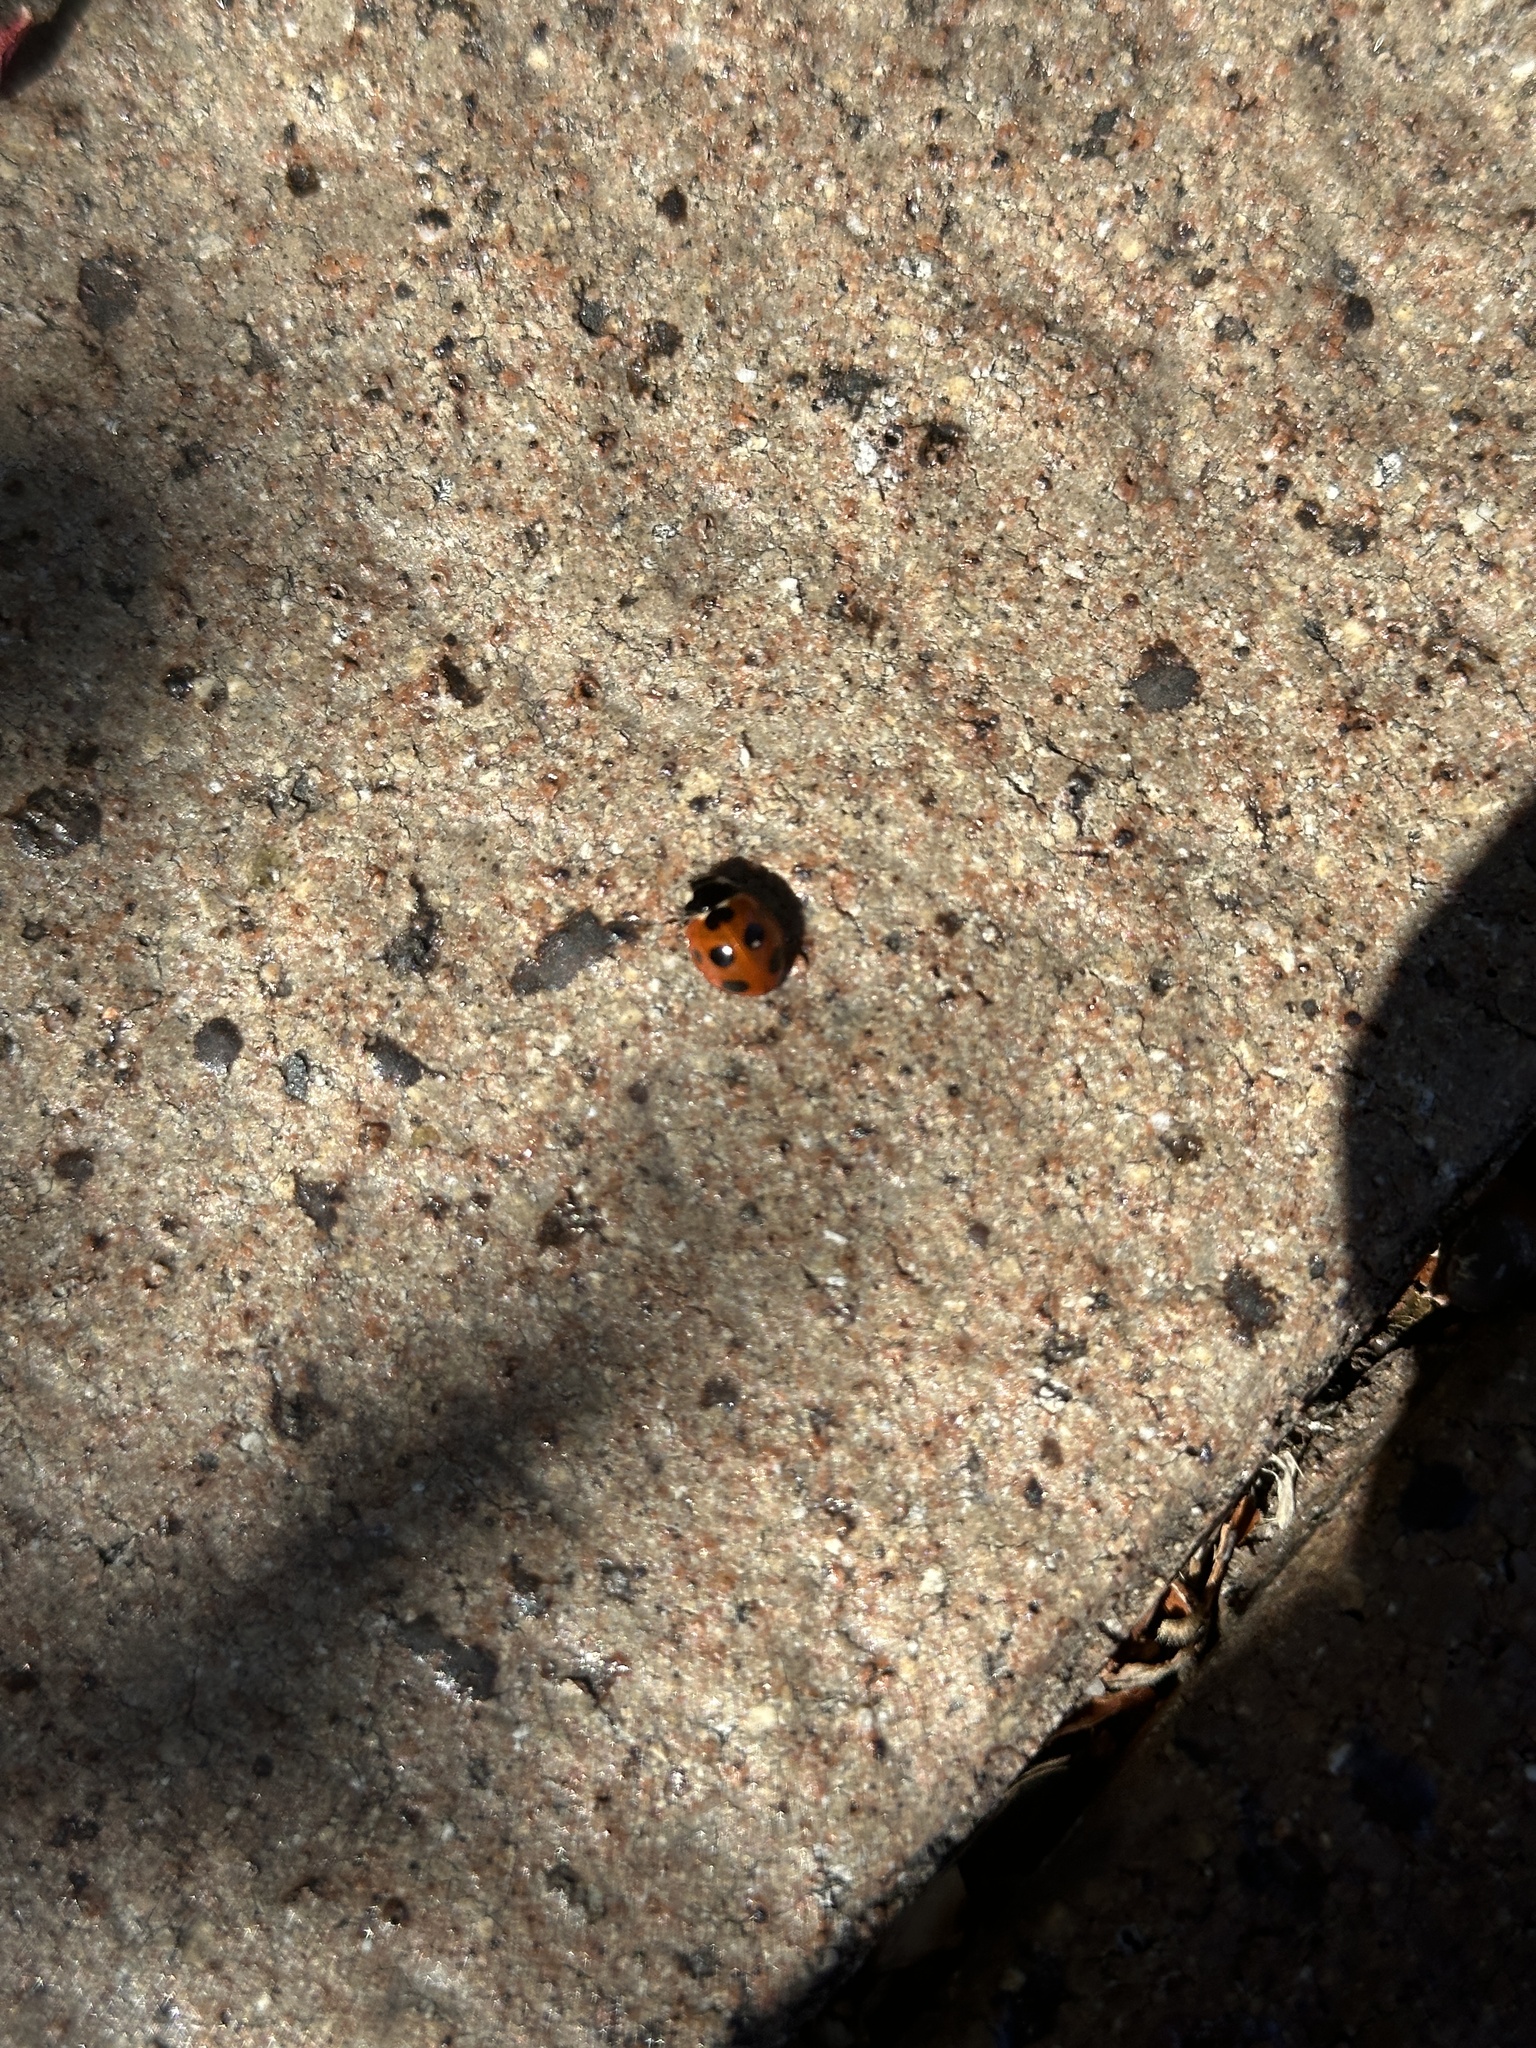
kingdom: Animalia
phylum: Arthropoda
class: Insecta
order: Coleoptera
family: Coccinellidae
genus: Coccinella
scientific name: Coccinella septempunctata
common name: Sevenspotted lady beetle
